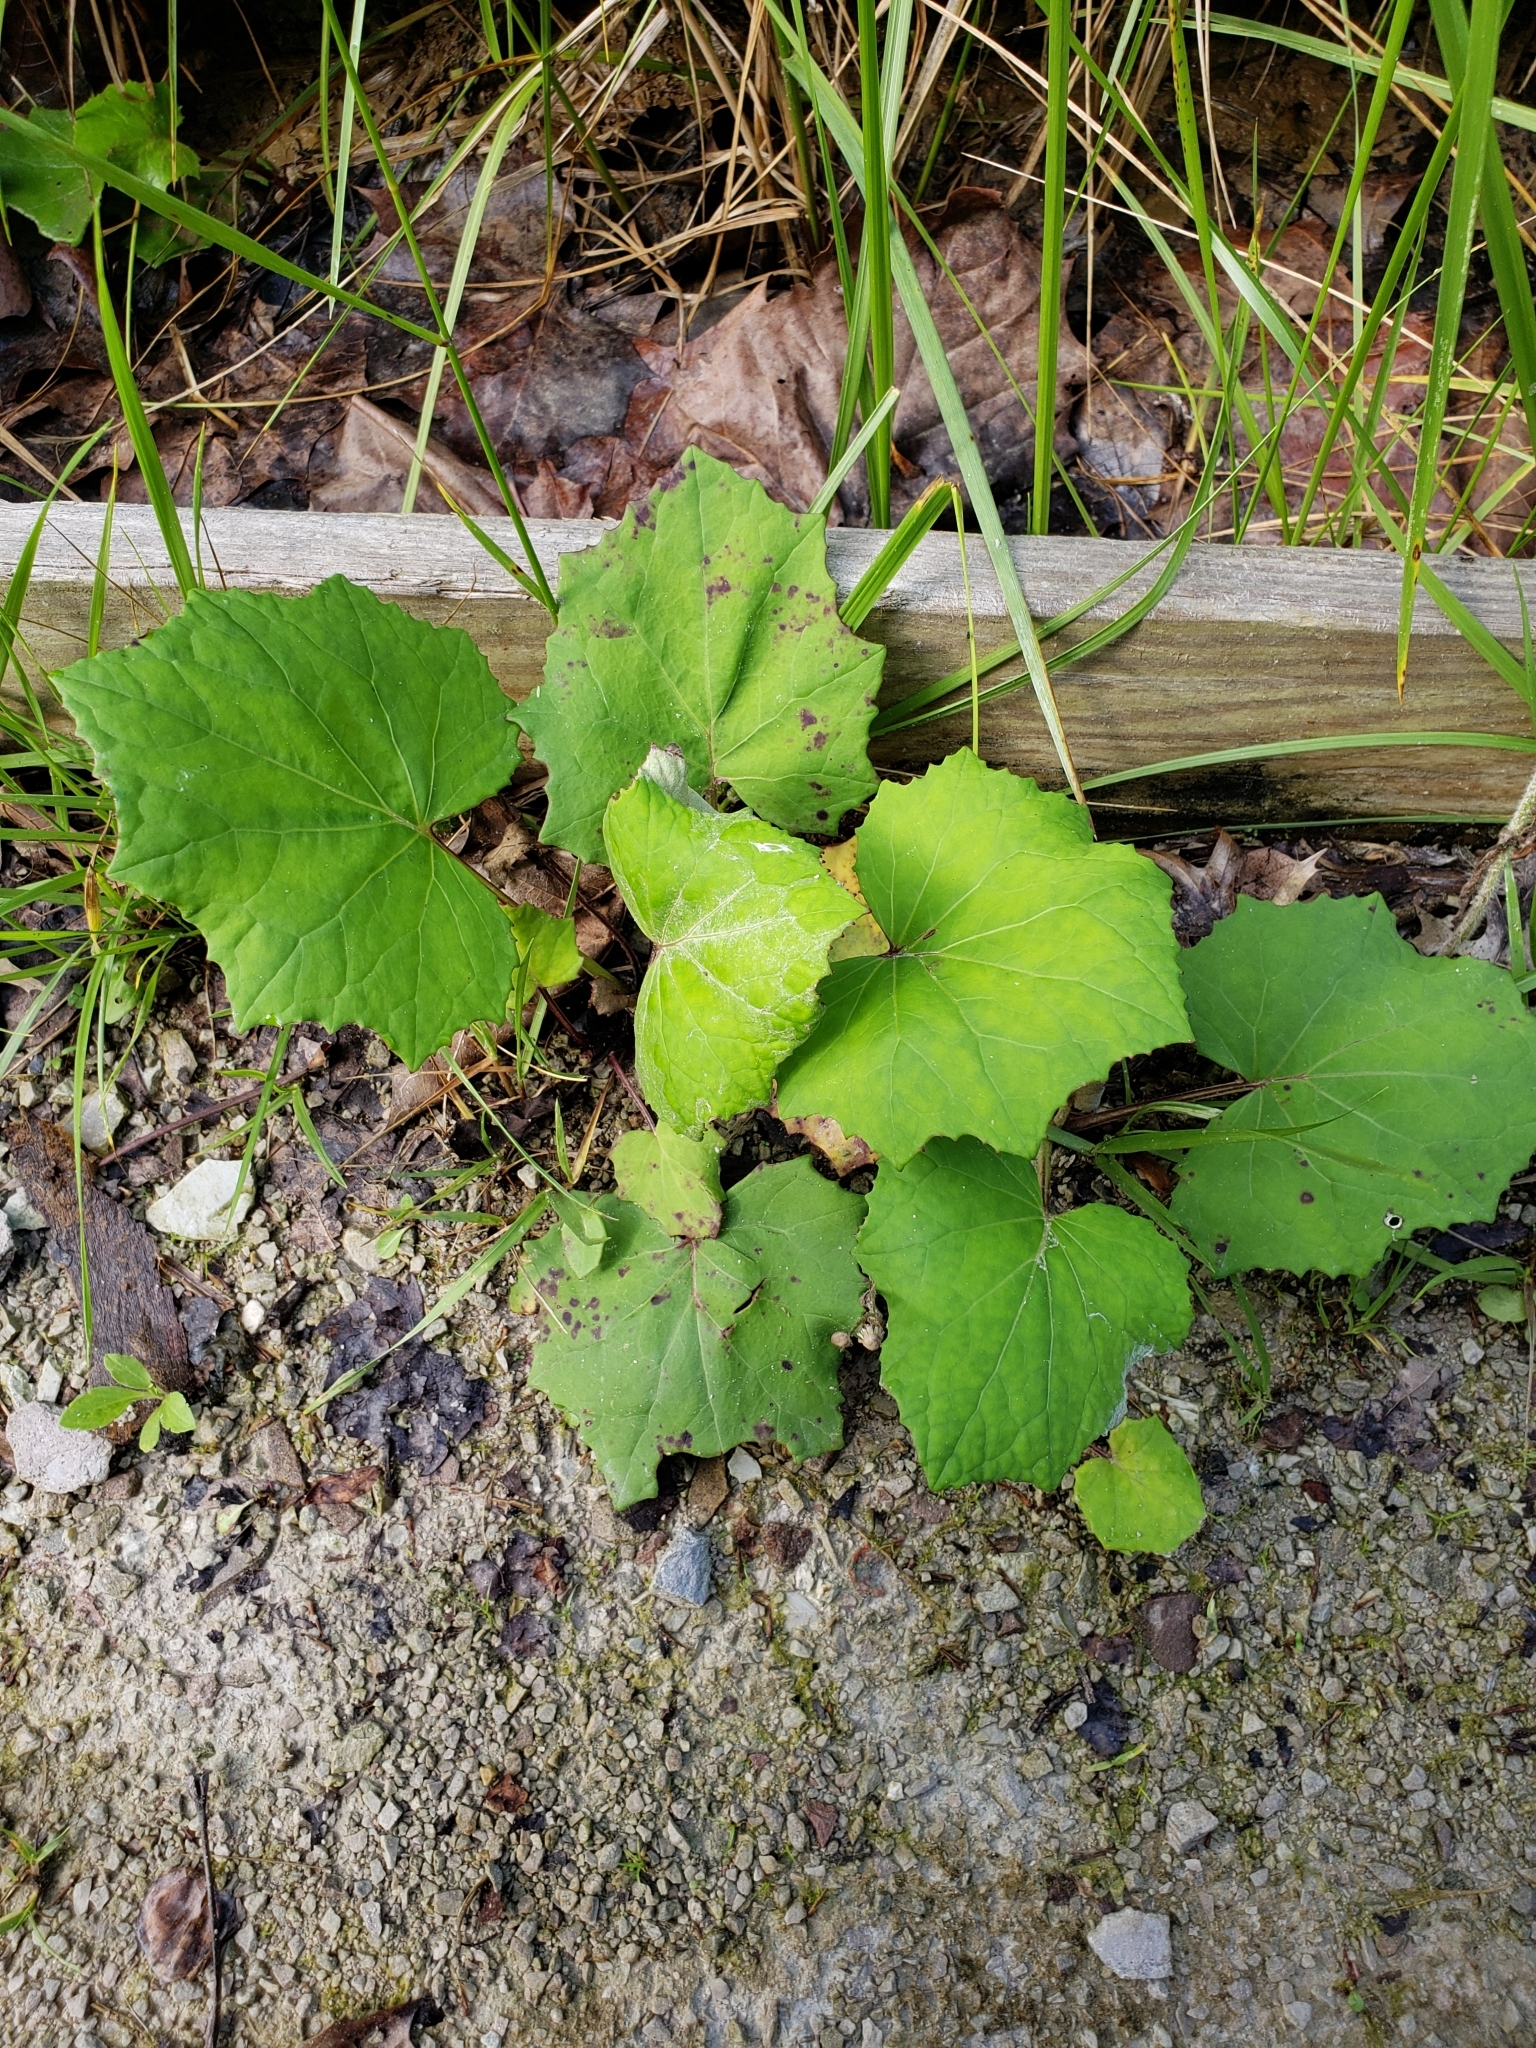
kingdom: Plantae
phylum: Tracheophyta
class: Magnoliopsida
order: Asterales
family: Asteraceae
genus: Tussilago
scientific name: Tussilago farfara
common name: Coltsfoot
